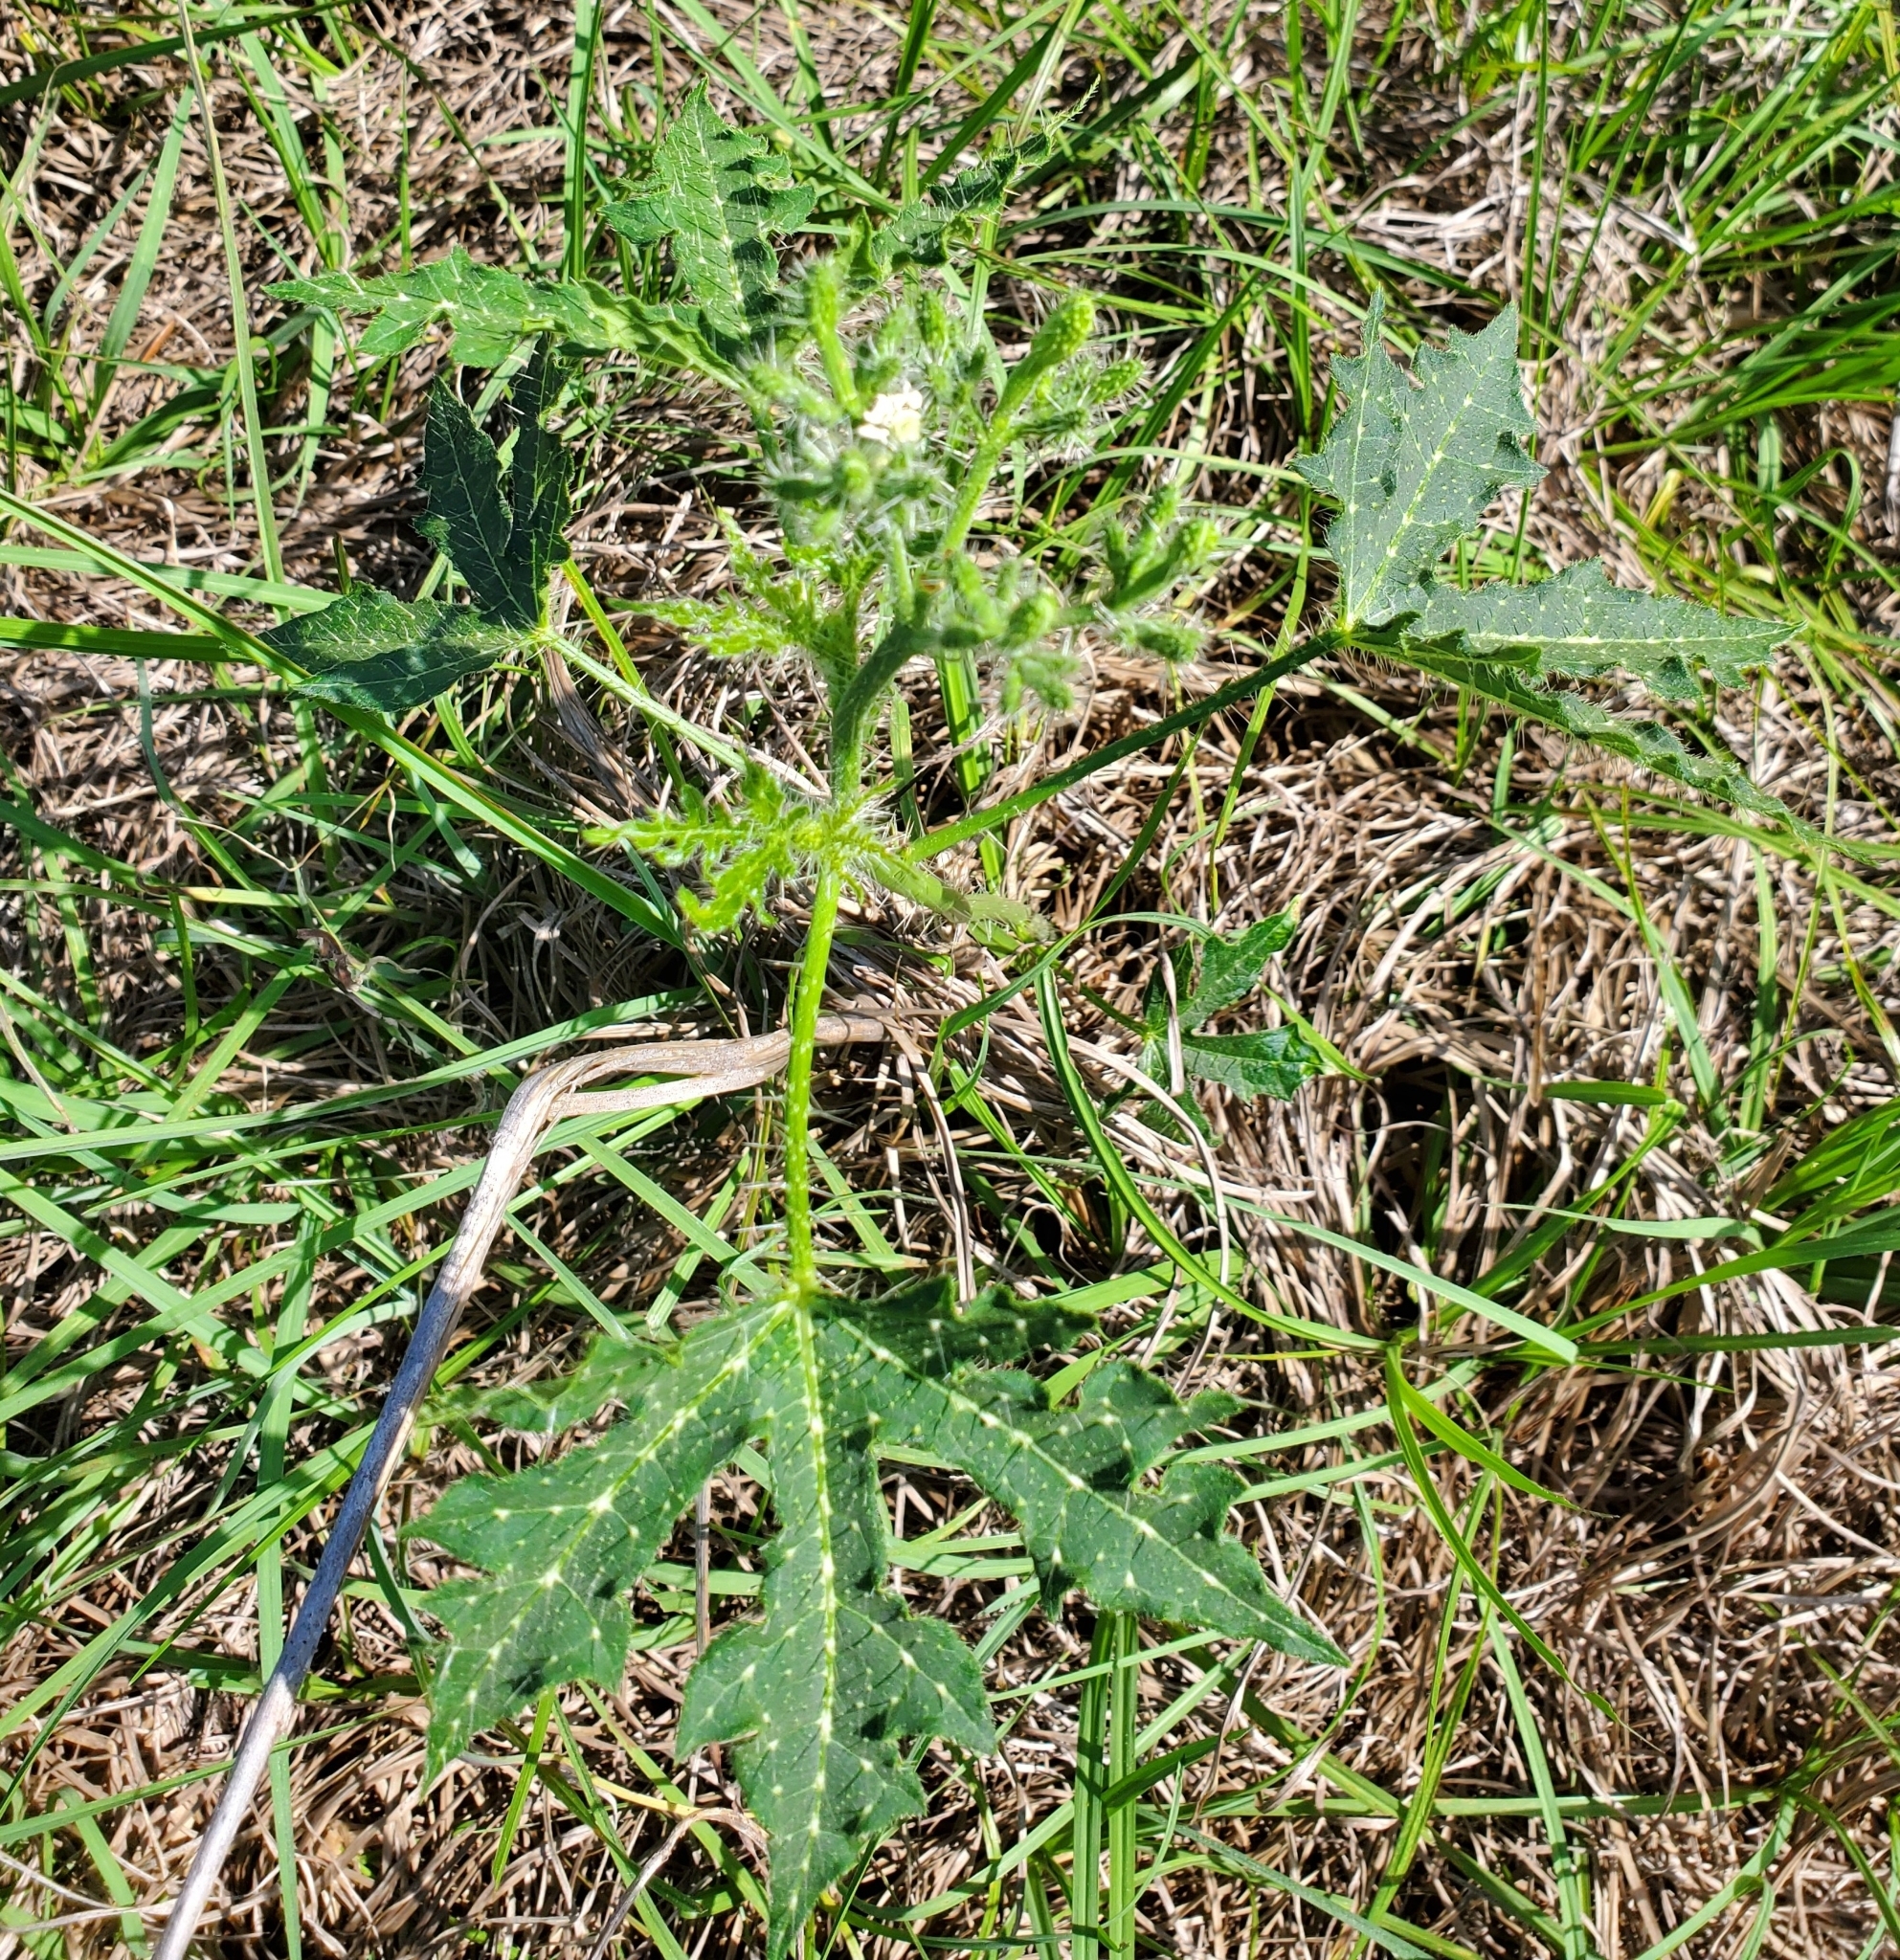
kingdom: Plantae
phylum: Tracheophyta
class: Magnoliopsida
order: Malpighiales
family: Euphorbiaceae
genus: Cnidoscolus
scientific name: Cnidoscolus stimulosus
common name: Bull-nettle
